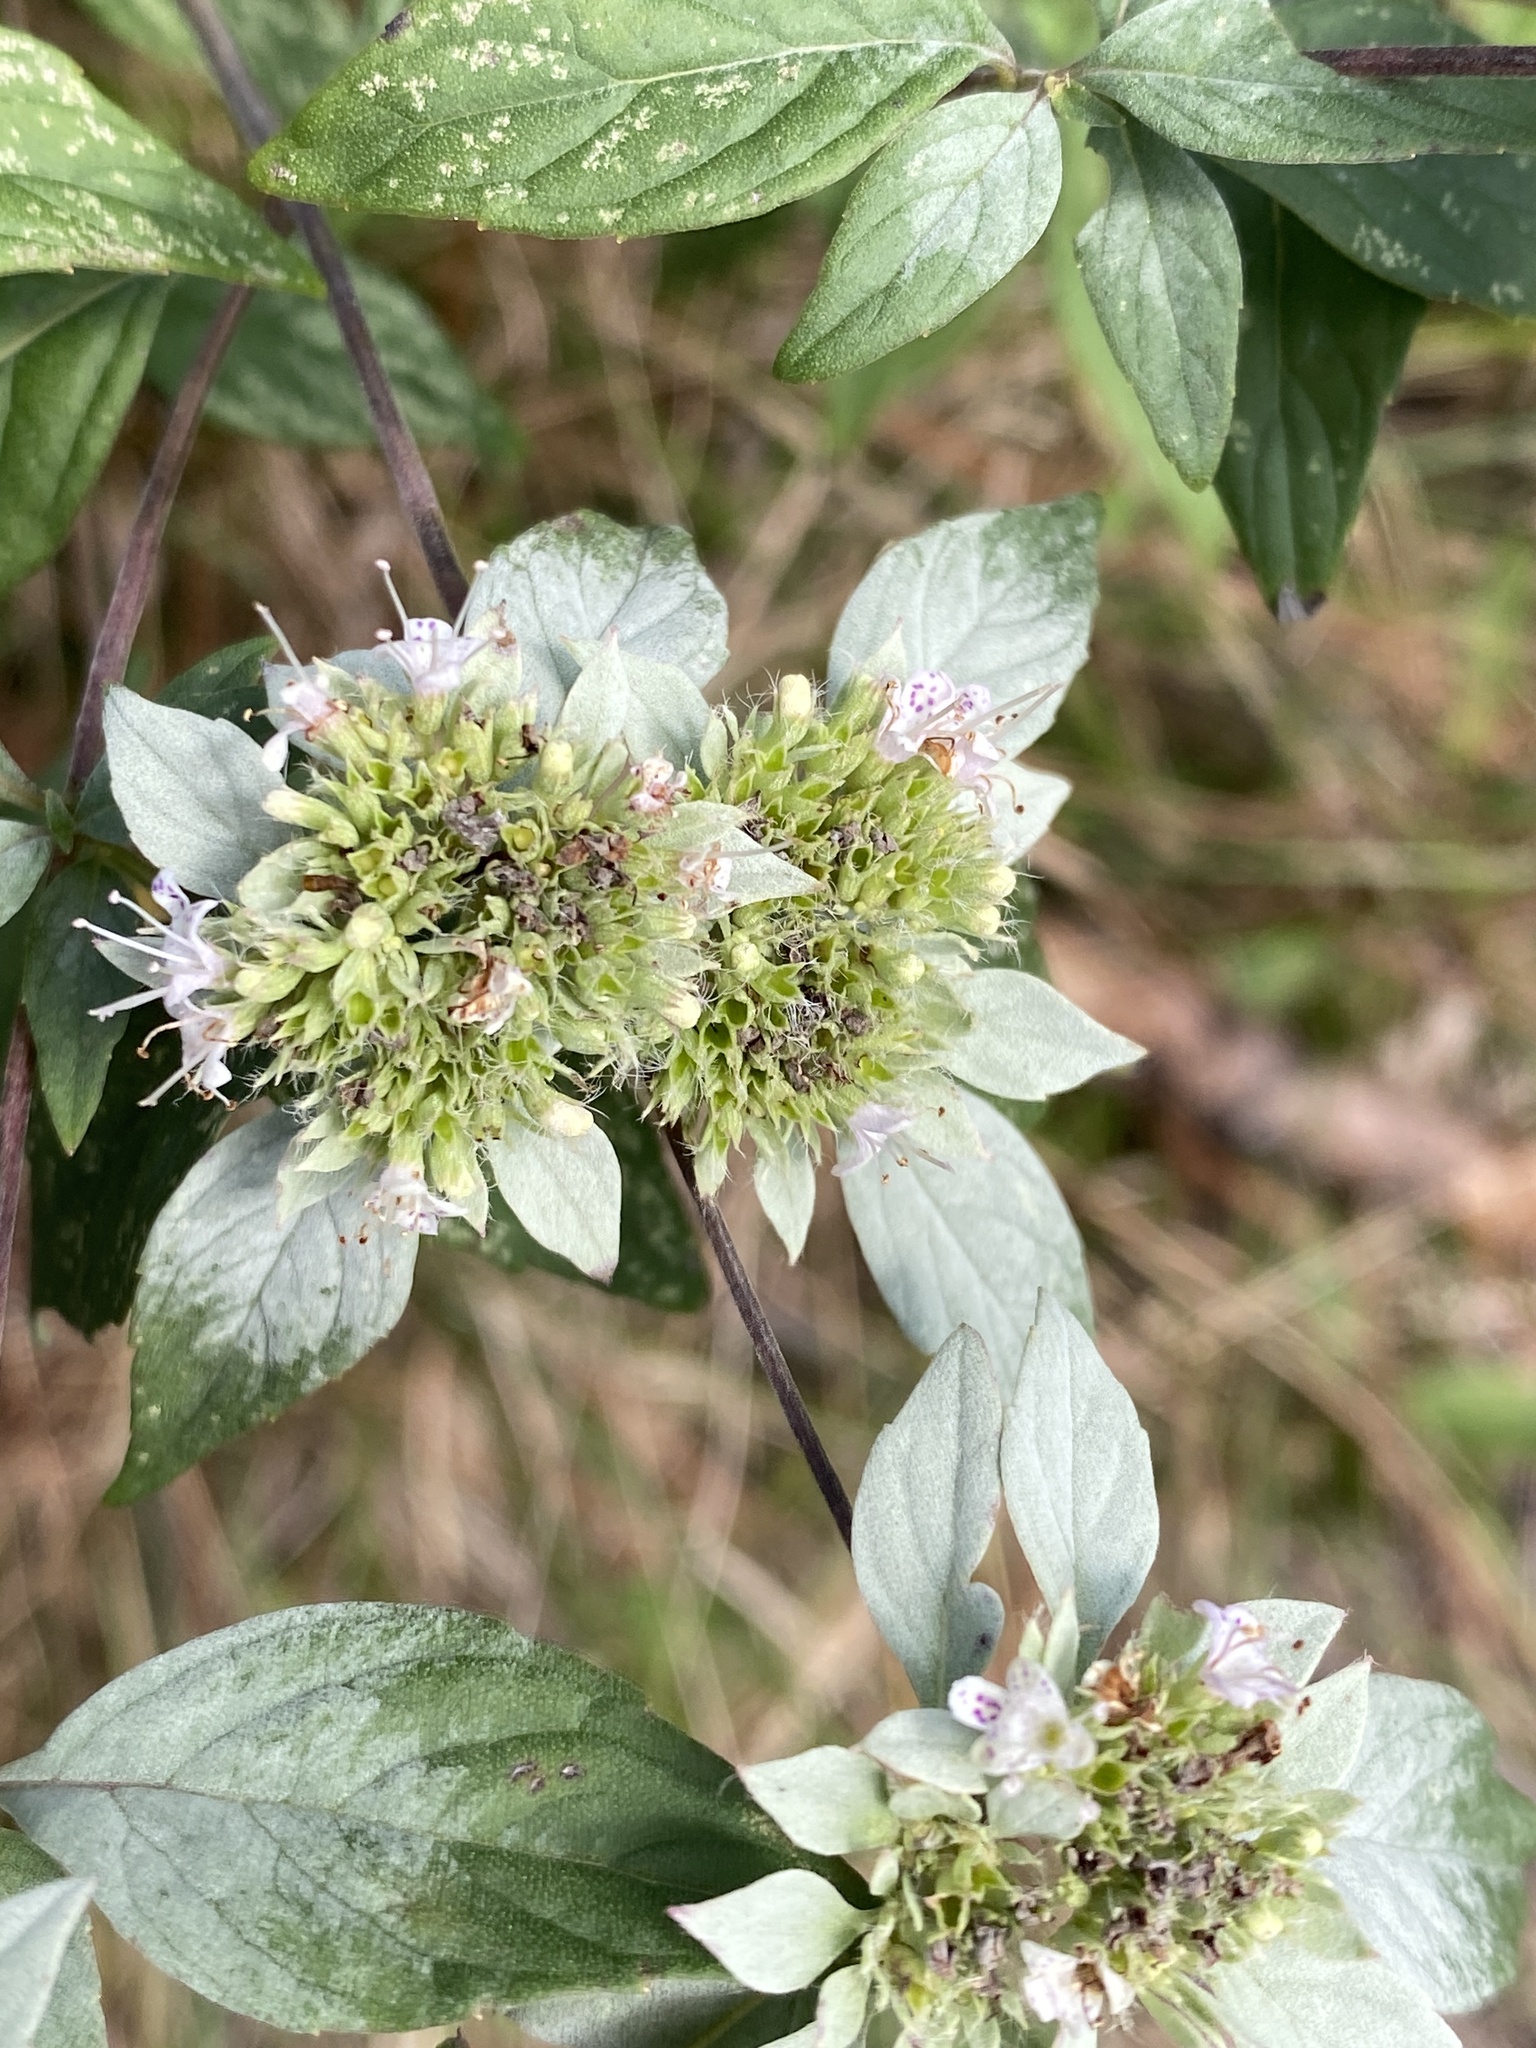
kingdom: Plantae
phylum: Tracheophyta
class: Magnoliopsida
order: Lamiales
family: Lamiaceae
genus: Pycnanthemum
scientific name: Pycnanthemum incanum
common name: Hoary mountain-mint
